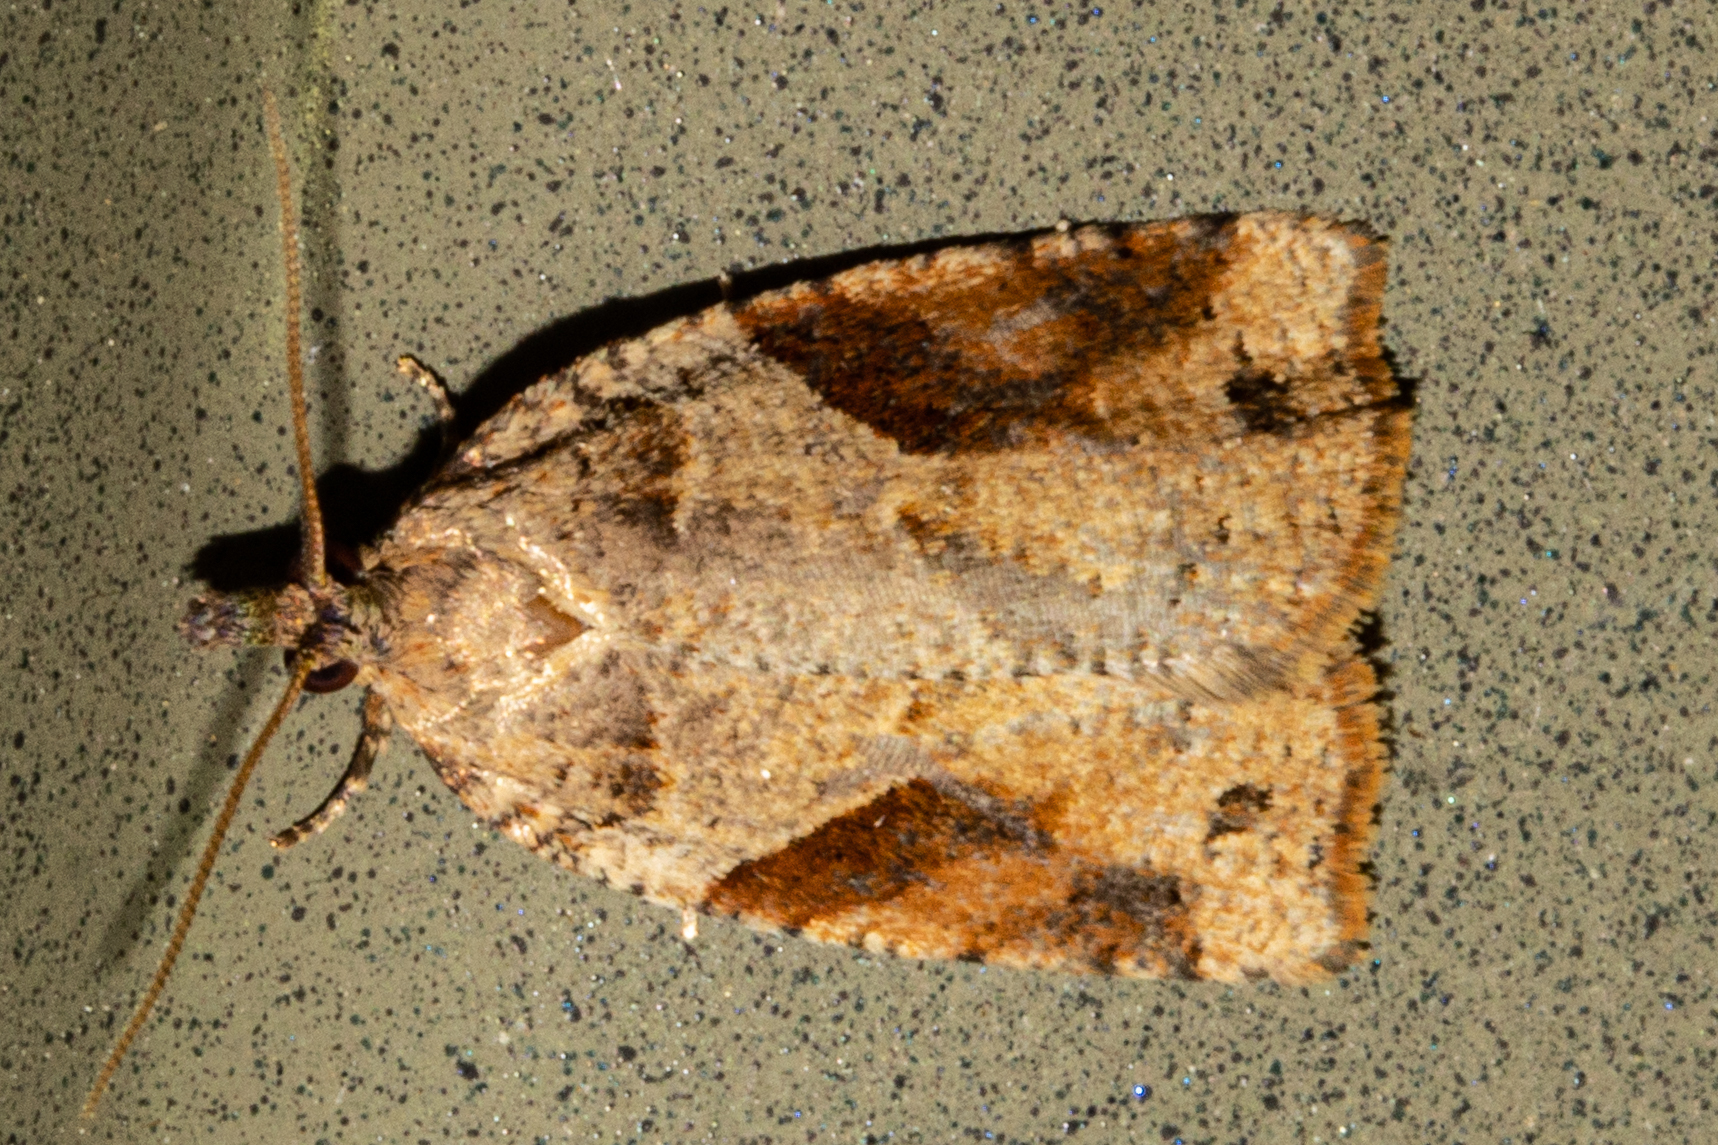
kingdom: Animalia
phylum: Arthropoda
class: Insecta
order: Lepidoptera
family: Tortricidae
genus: Apoctena
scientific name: Apoctena orthropis
